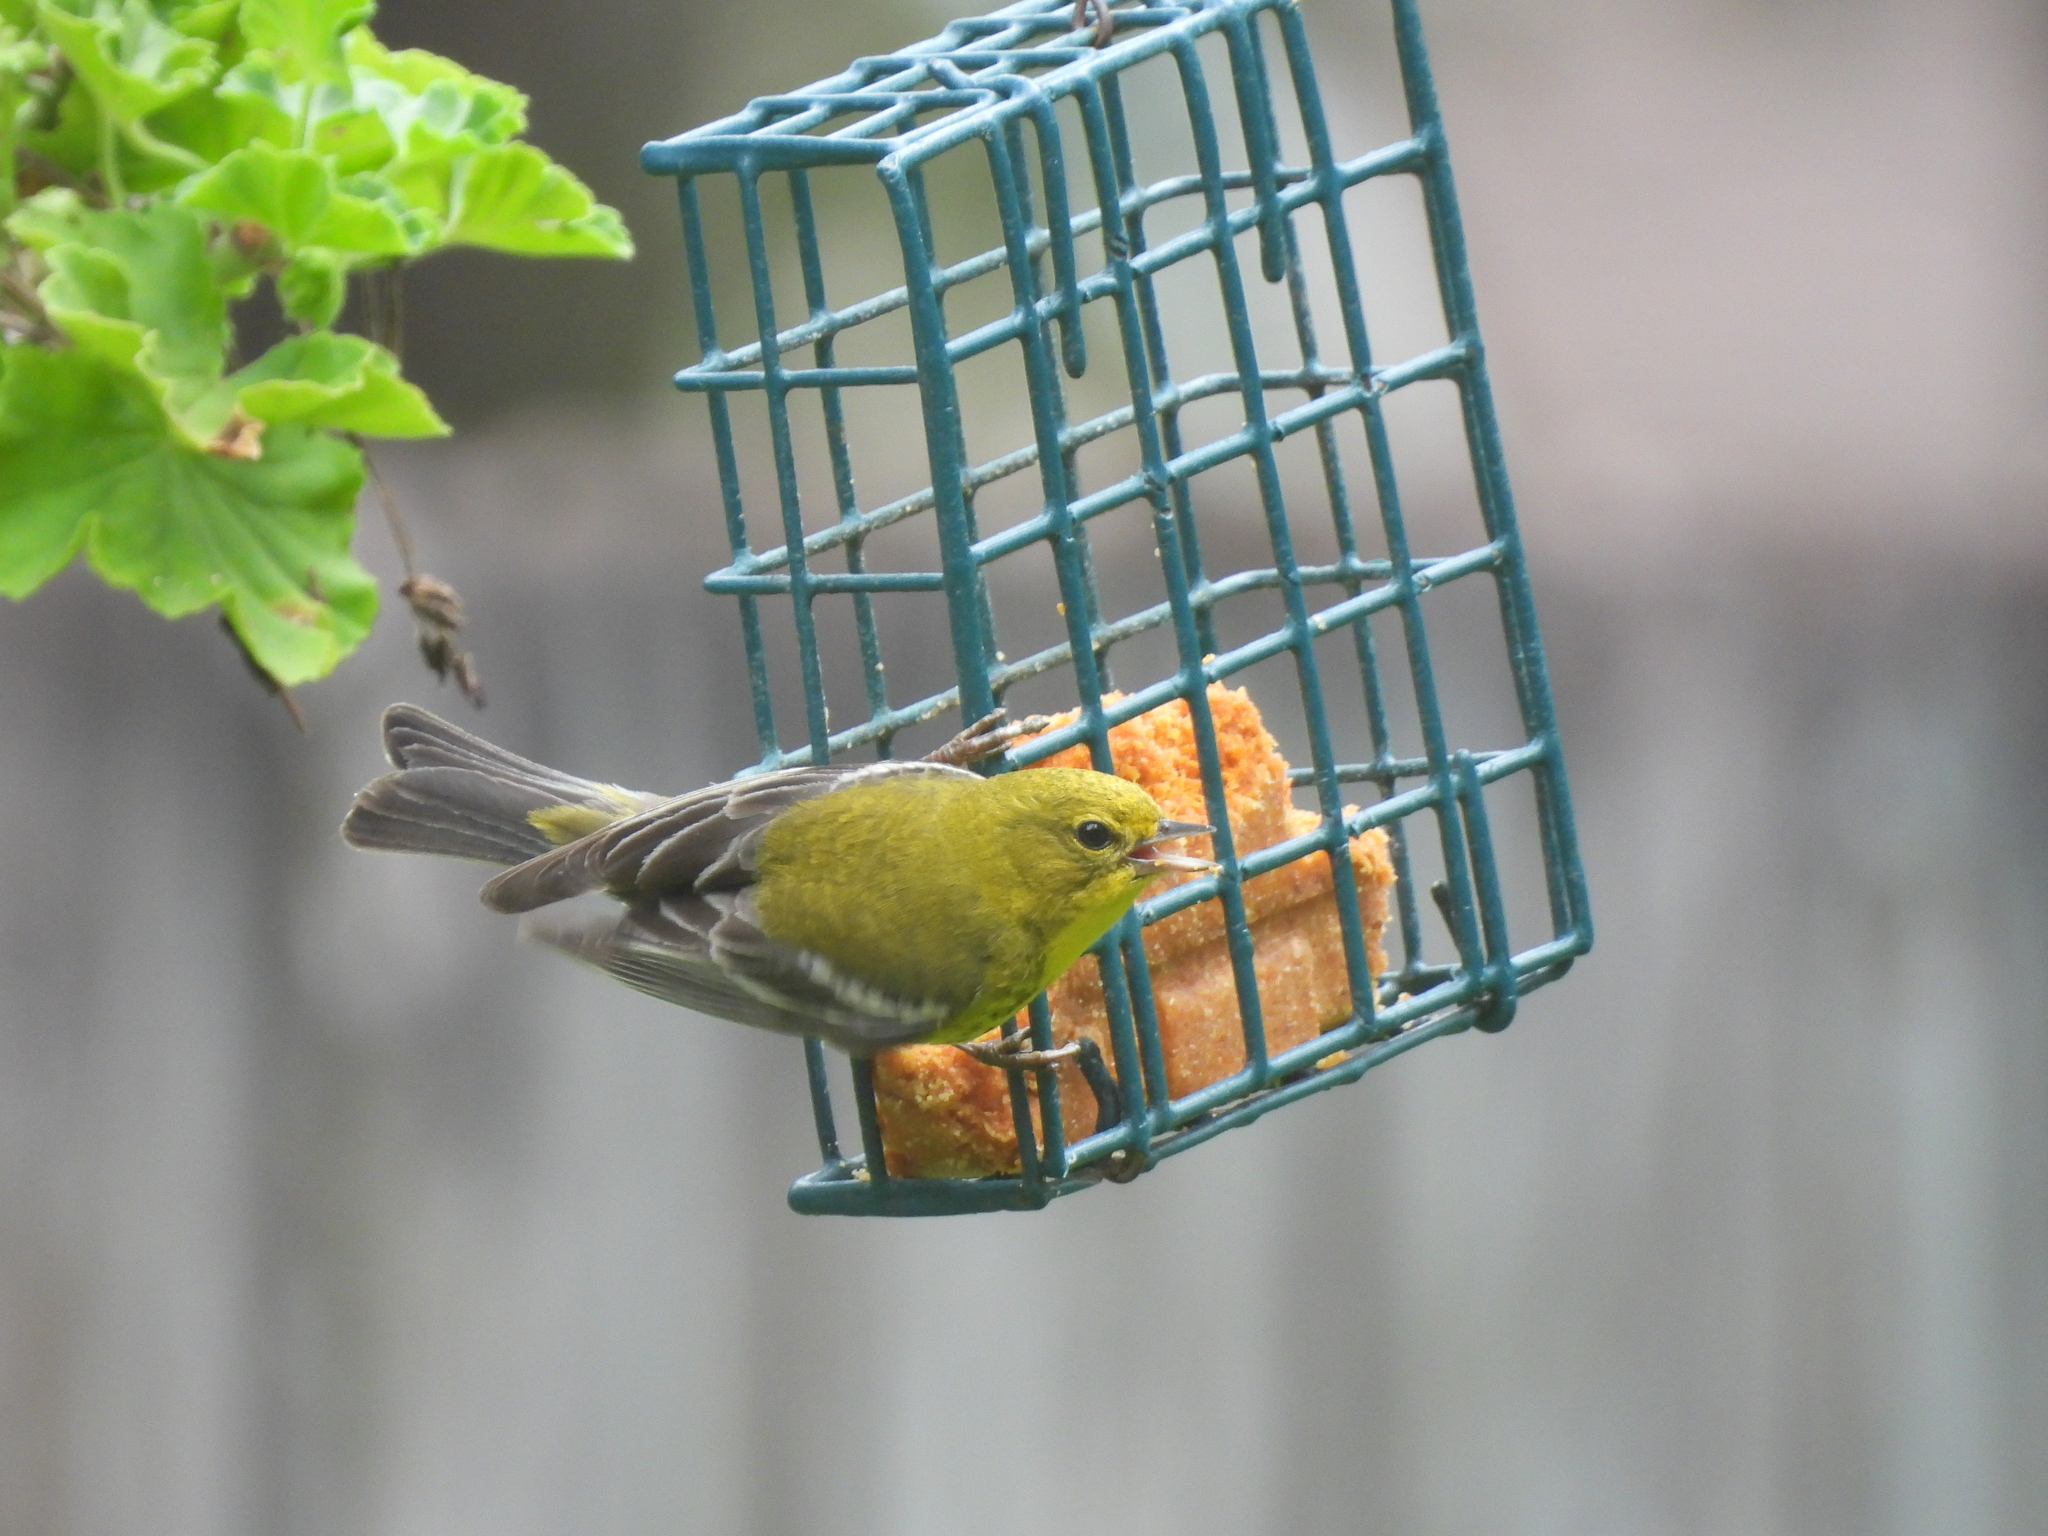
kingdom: Animalia
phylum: Chordata
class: Aves
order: Passeriformes
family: Parulidae
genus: Setophaga
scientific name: Setophaga pinus
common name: Pine warbler
